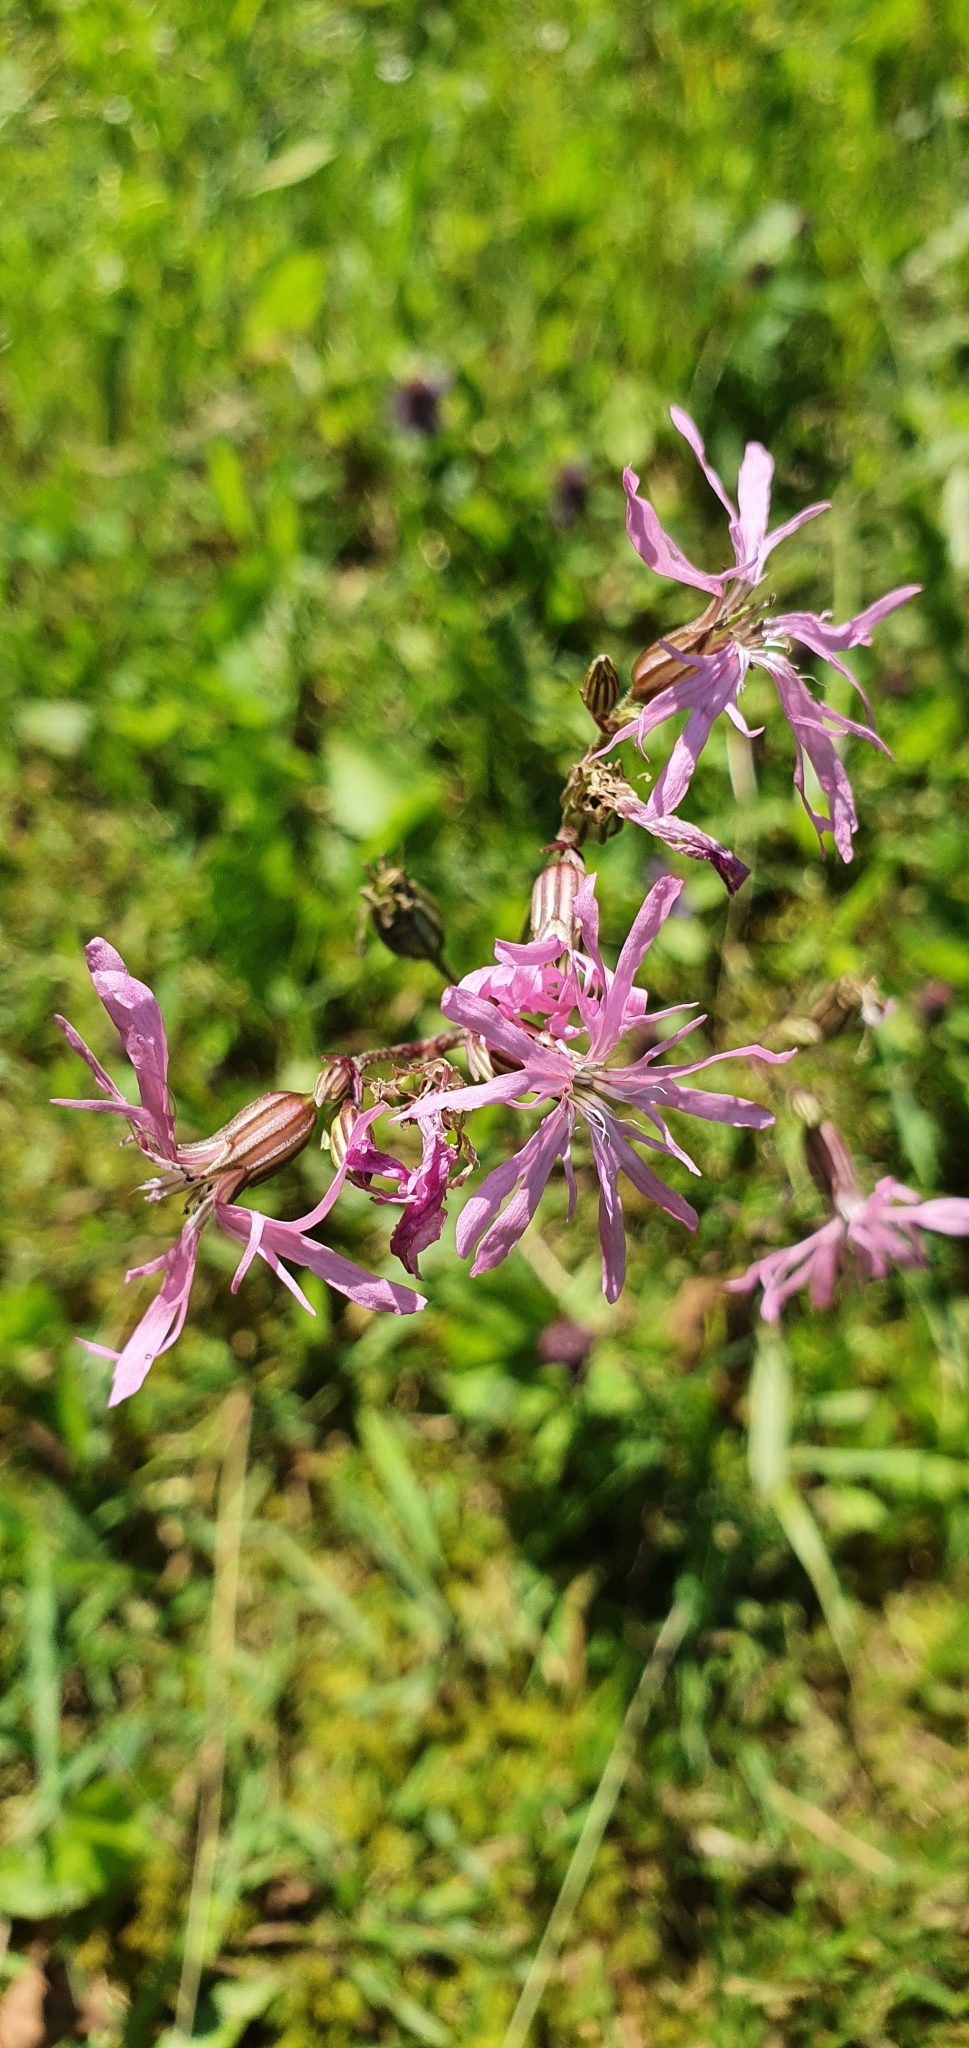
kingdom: Plantae
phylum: Tracheophyta
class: Magnoliopsida
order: Caryophyllales
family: Caryophyllaceae
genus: Silene
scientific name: Silene flos-cuculi
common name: Ragged-robin
